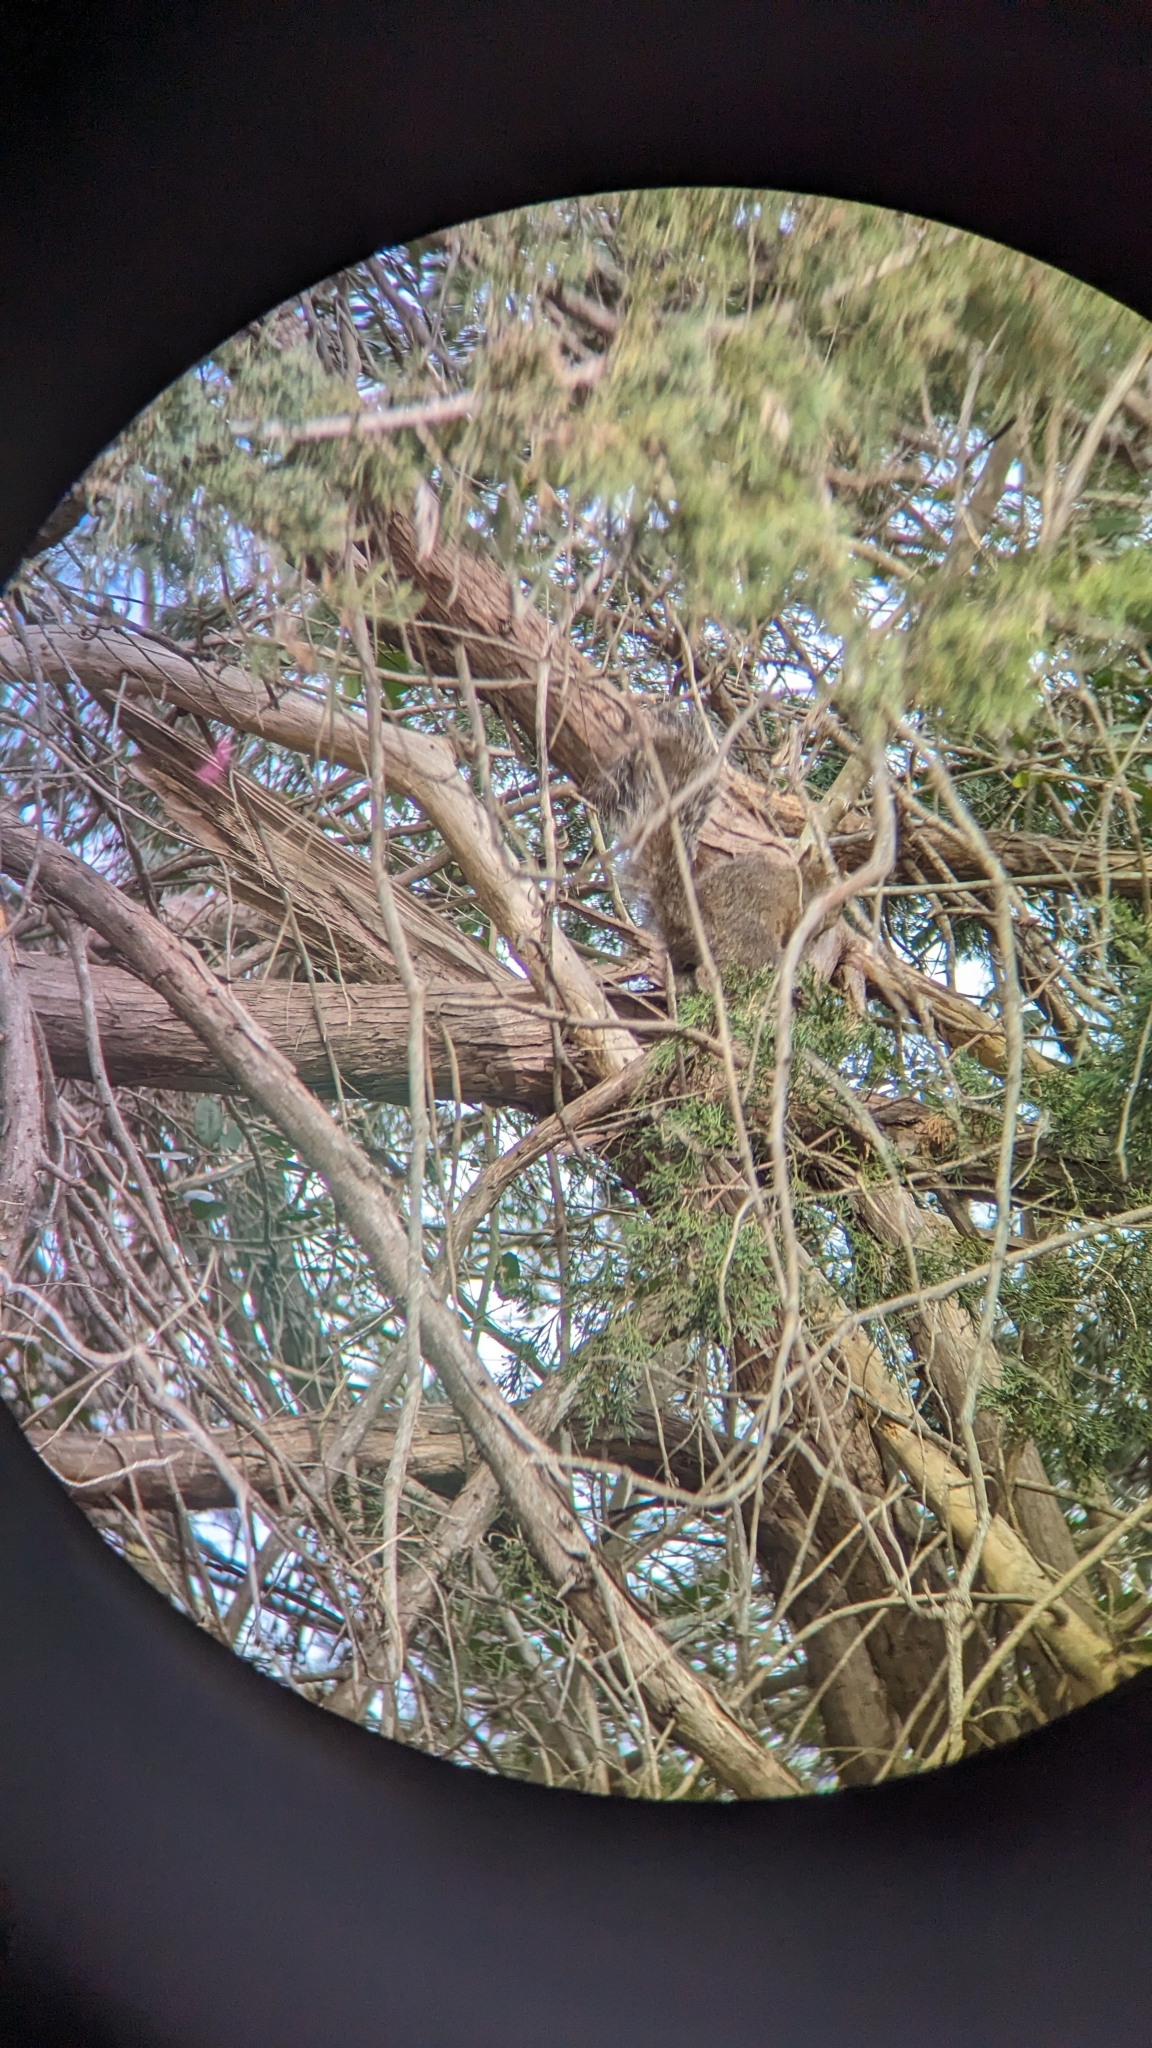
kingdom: Animalia
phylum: Chordata
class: Mammalia
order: Rodentia
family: Sciuridae
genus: Sciurus
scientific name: Sciurus carolinensis
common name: Eastern gray squirrel
